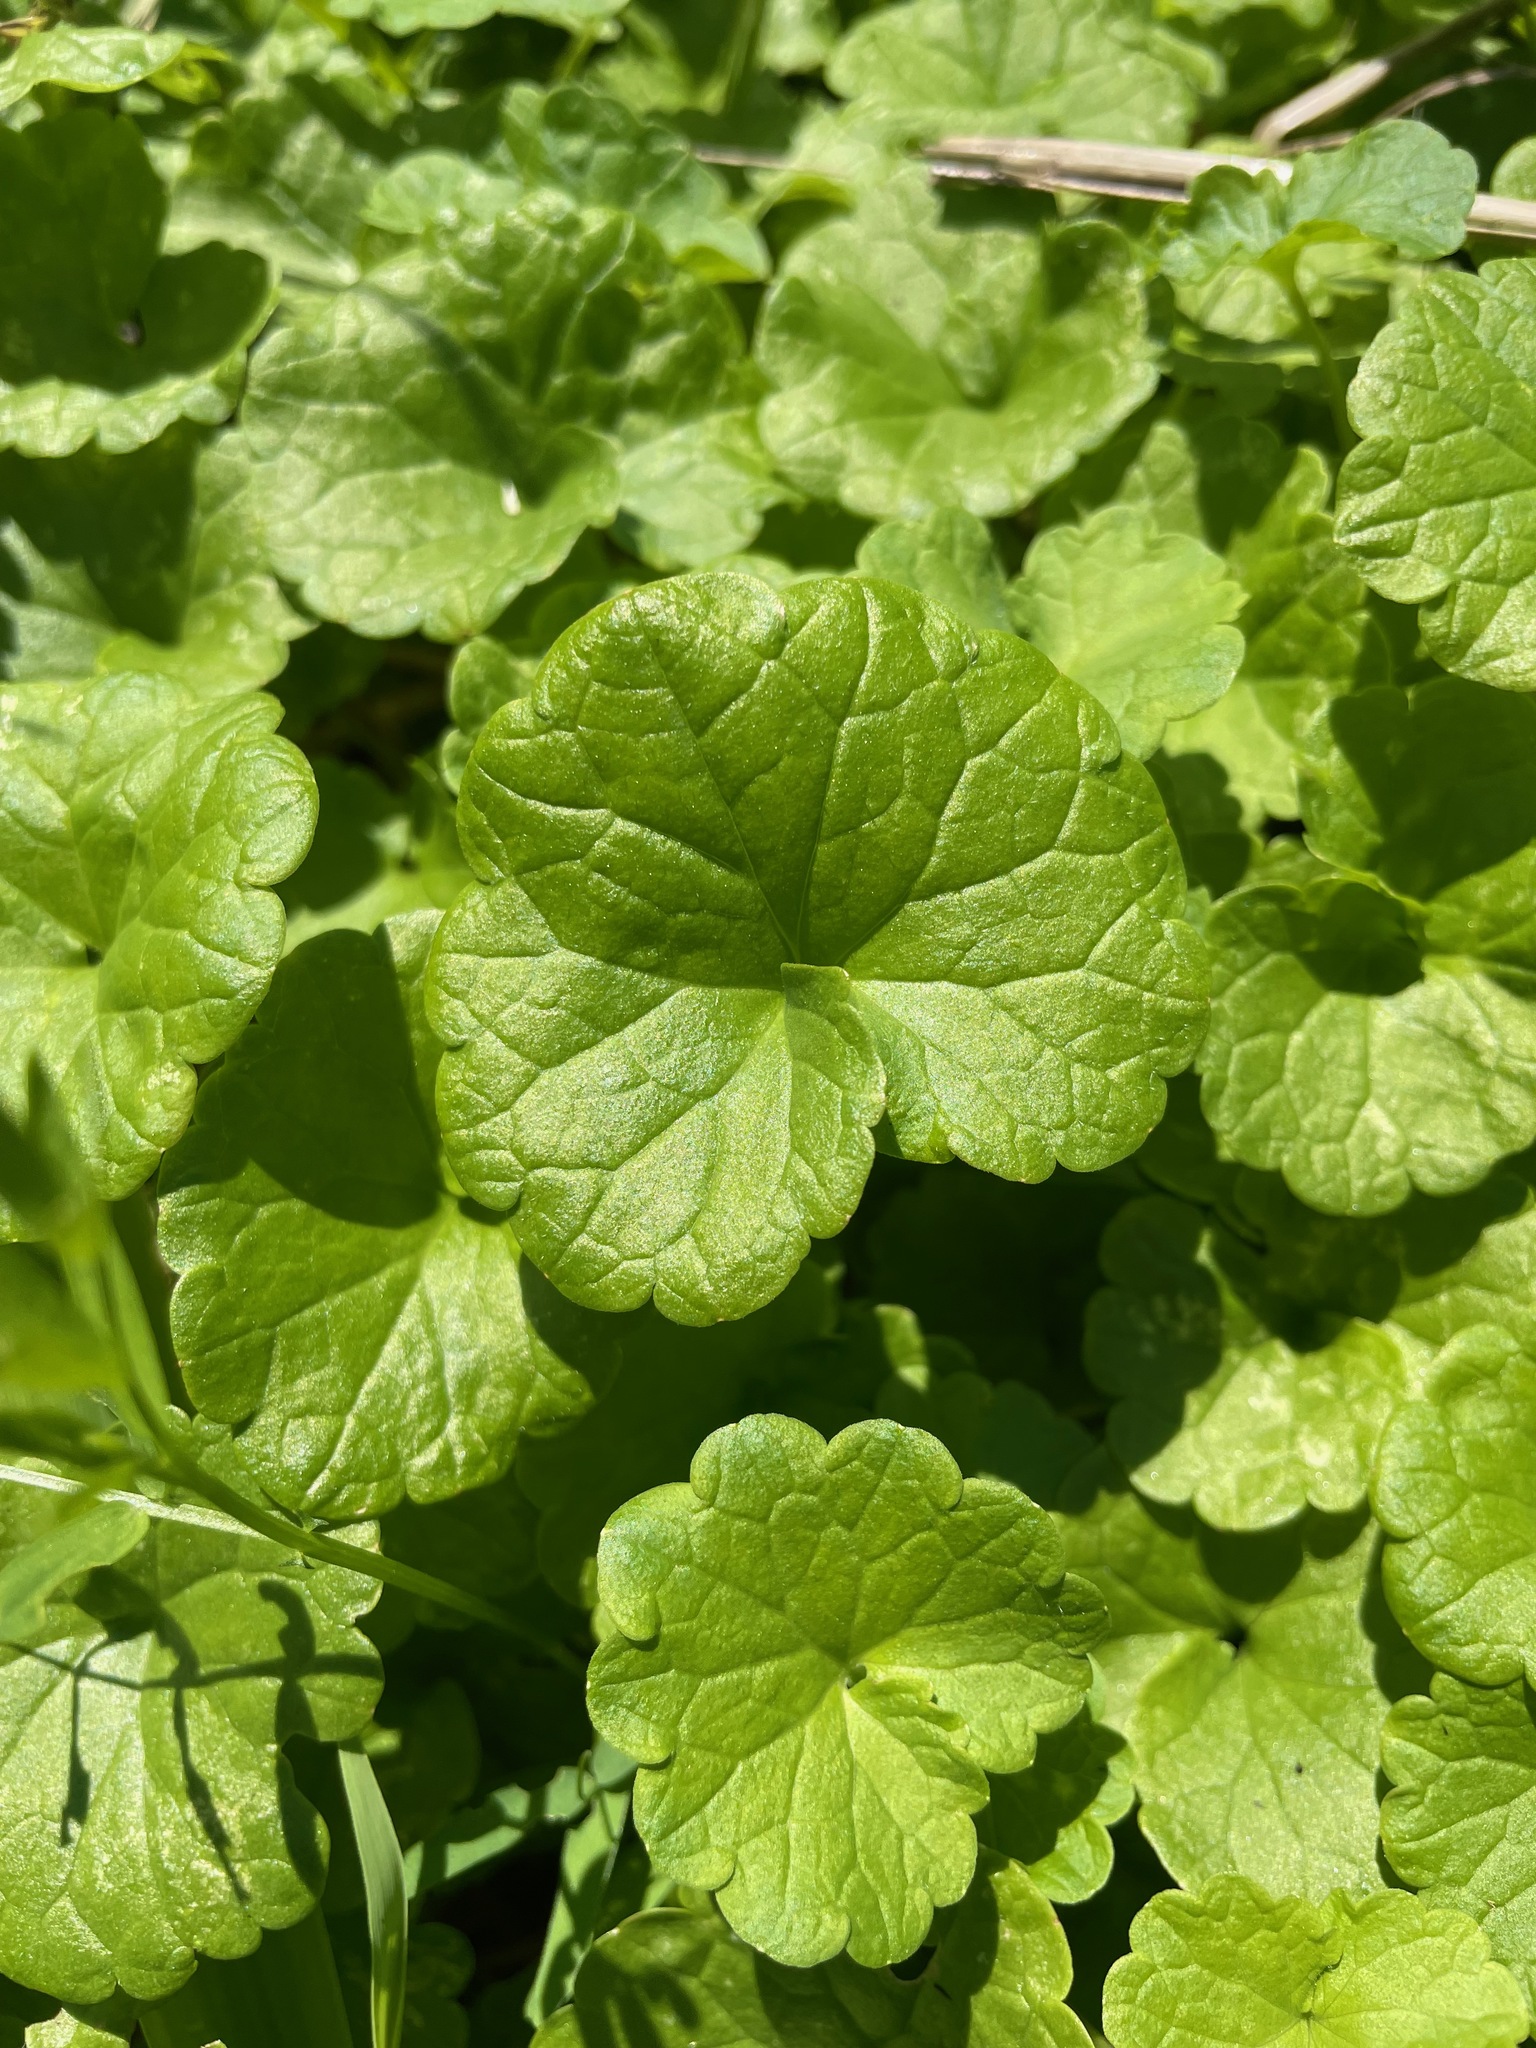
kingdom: Plantae
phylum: Tracheophyta
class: Magnoliopsida
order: Lamiales
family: Lamiaceae
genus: Glechoma
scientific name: Glechoma hederacea
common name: Ground ivy
